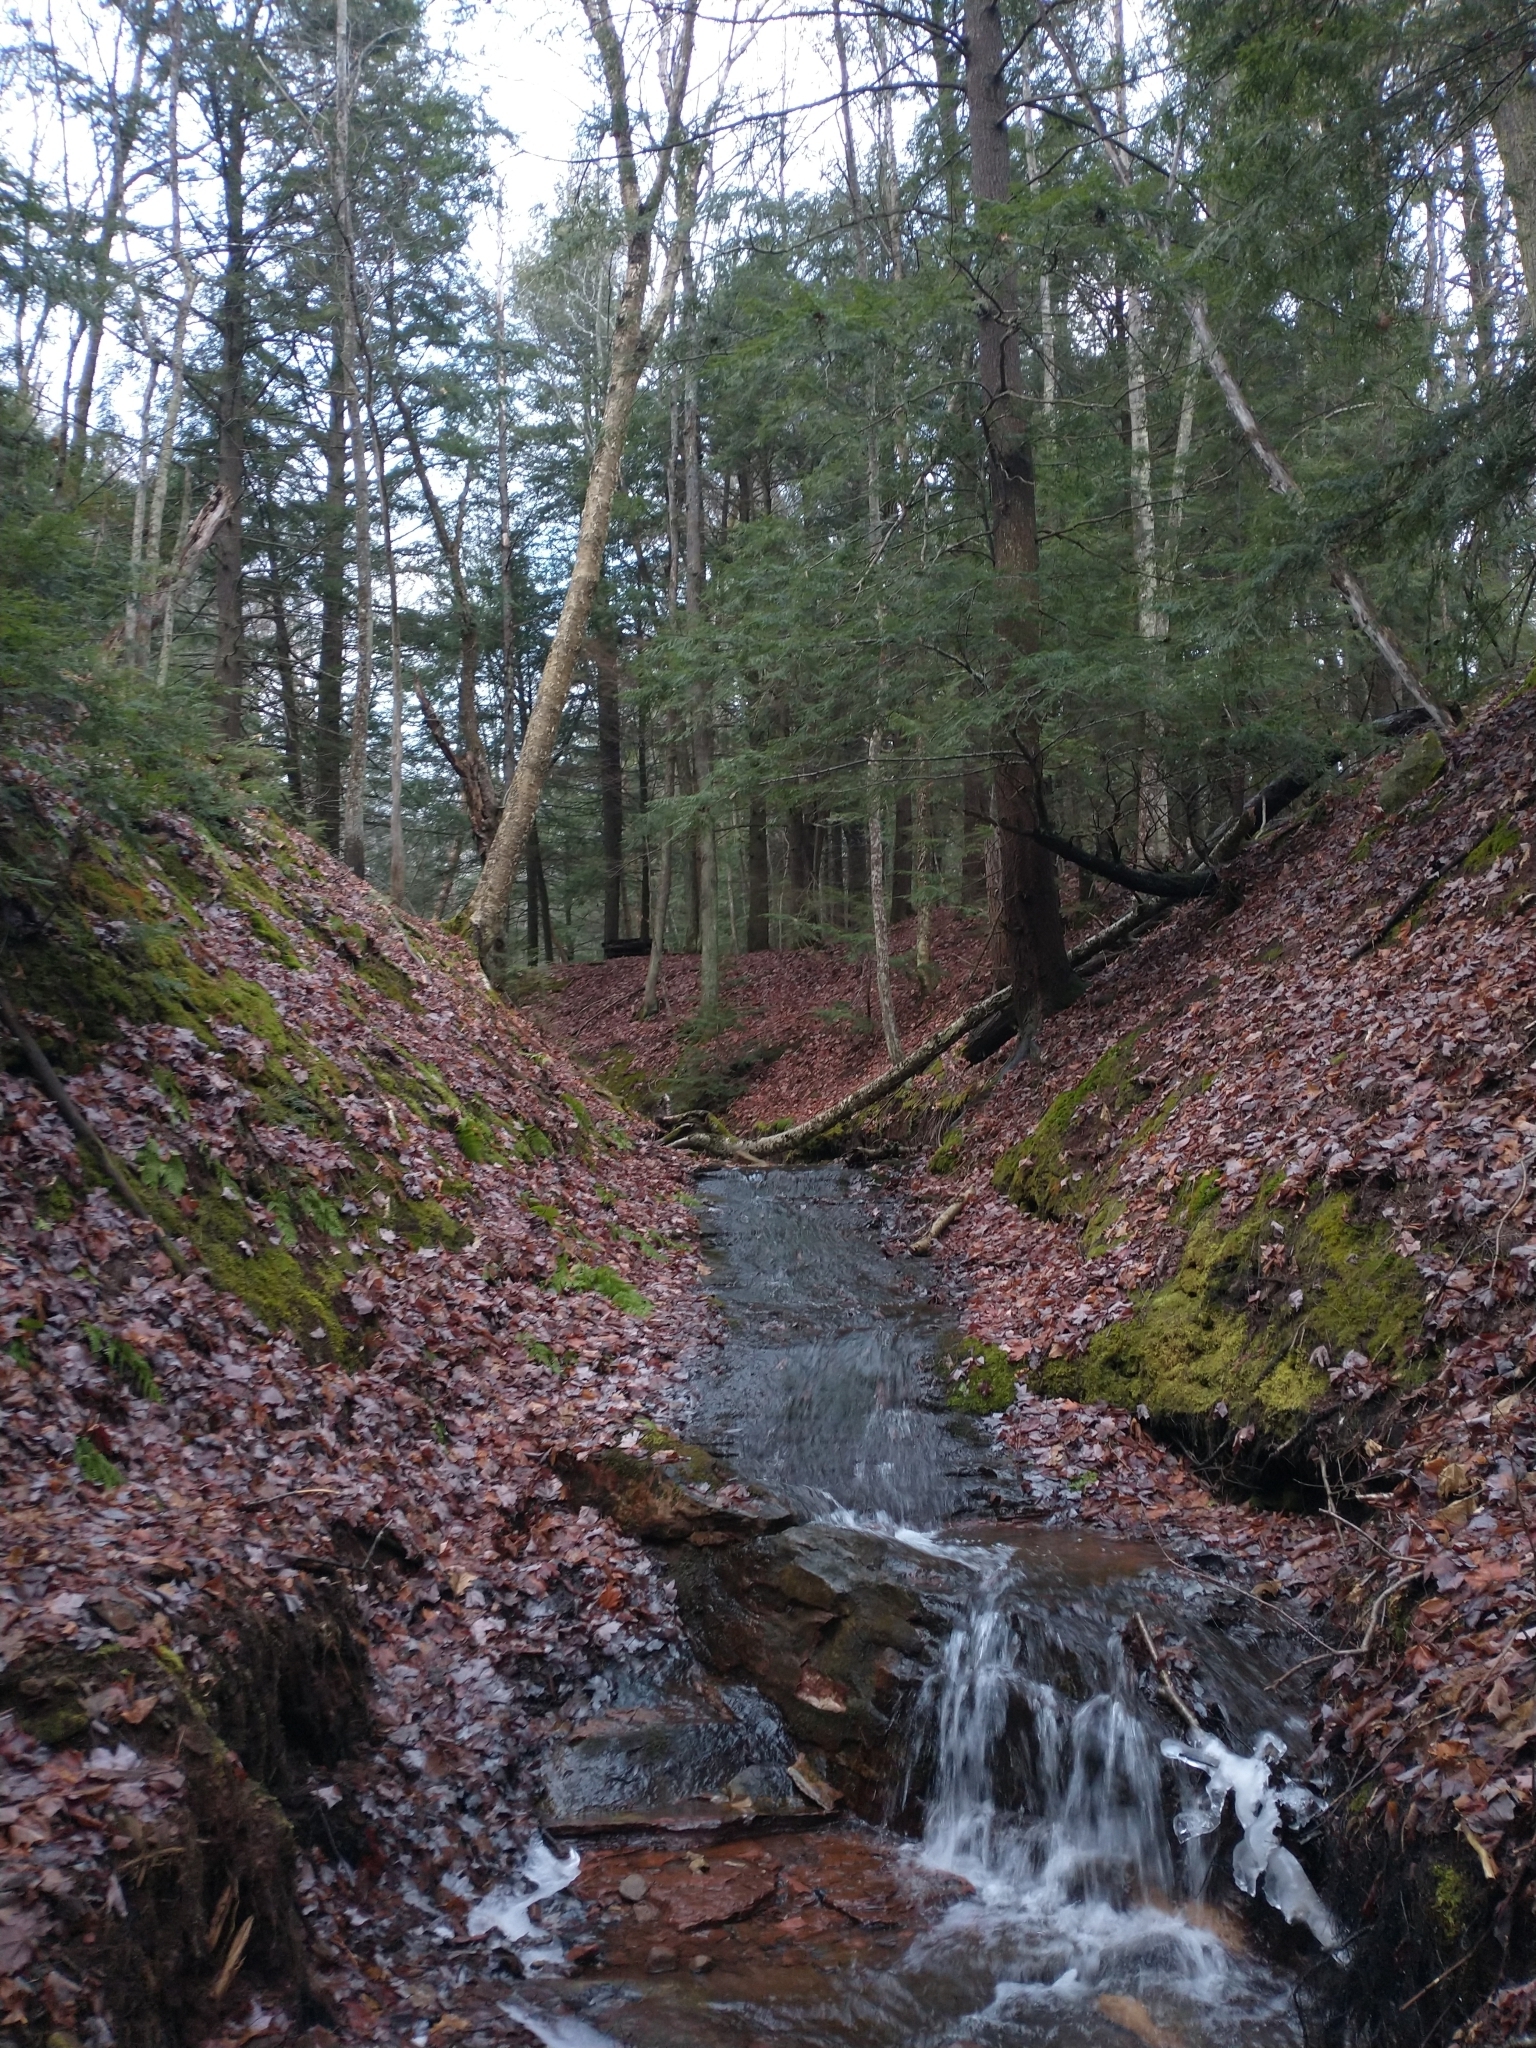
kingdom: Plantae
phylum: Tracheophyta
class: Pinopsida
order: Pinales
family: Pinaceae
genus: Tsuga
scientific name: Tsuga canadensis
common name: Eastern hemlock
